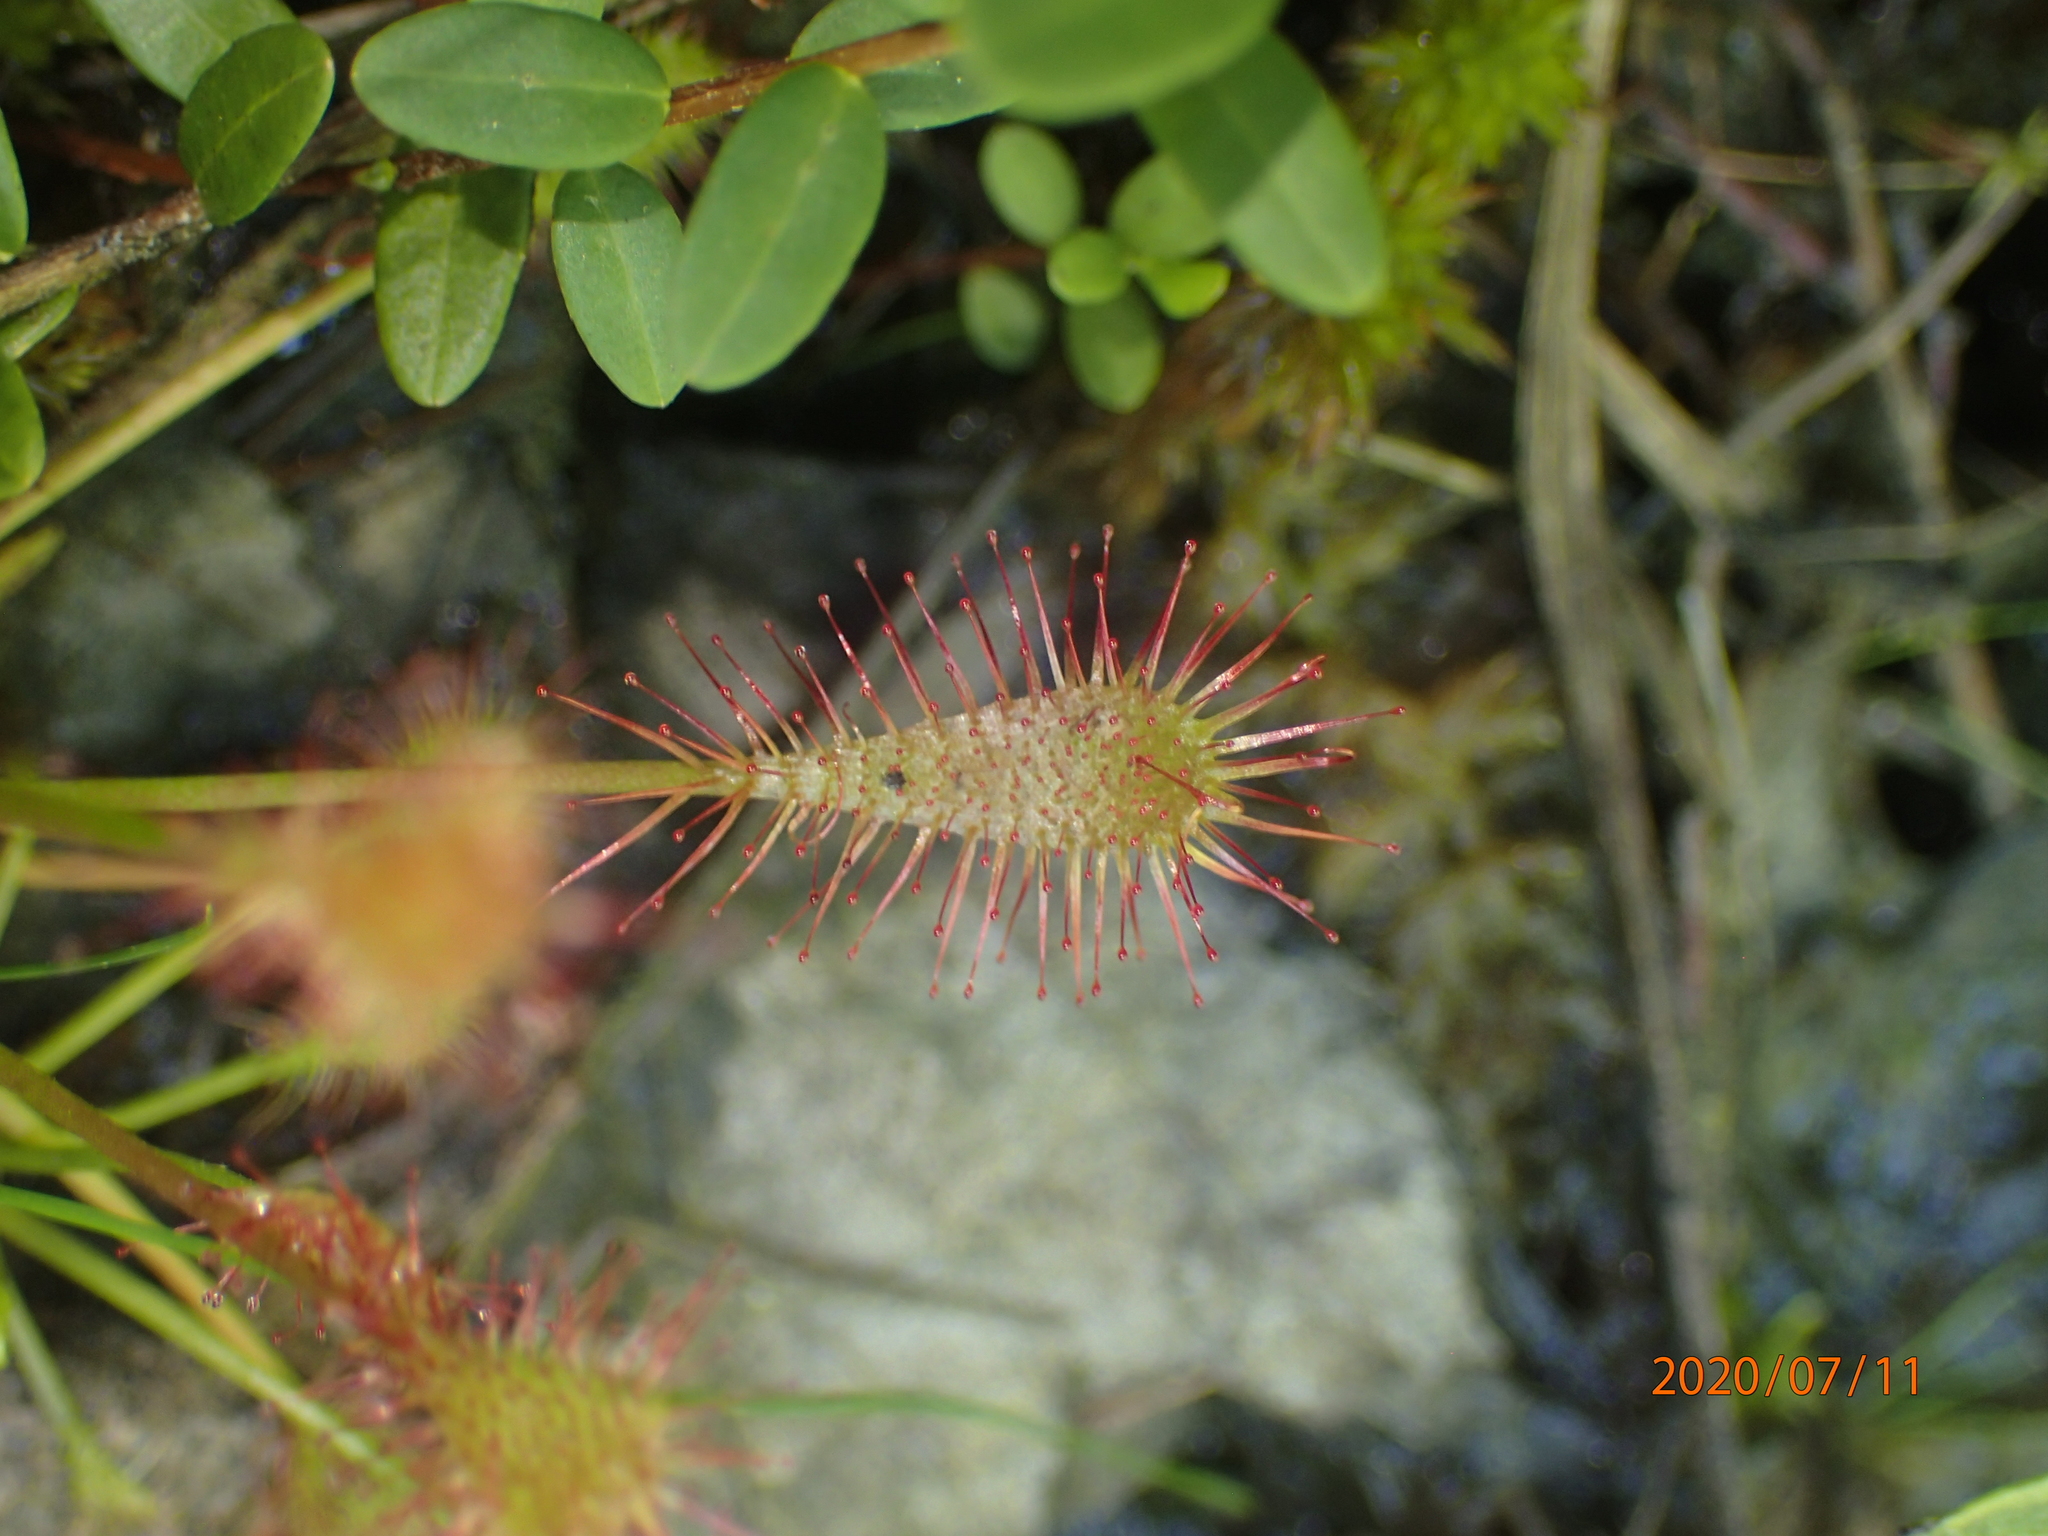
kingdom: Plantae
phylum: Tracheophyta
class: Magnoliopsida
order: Caryophyllales
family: Droseraceae
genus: Drosera
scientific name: Drosera intermedia
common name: Oblong-leaved sundew
